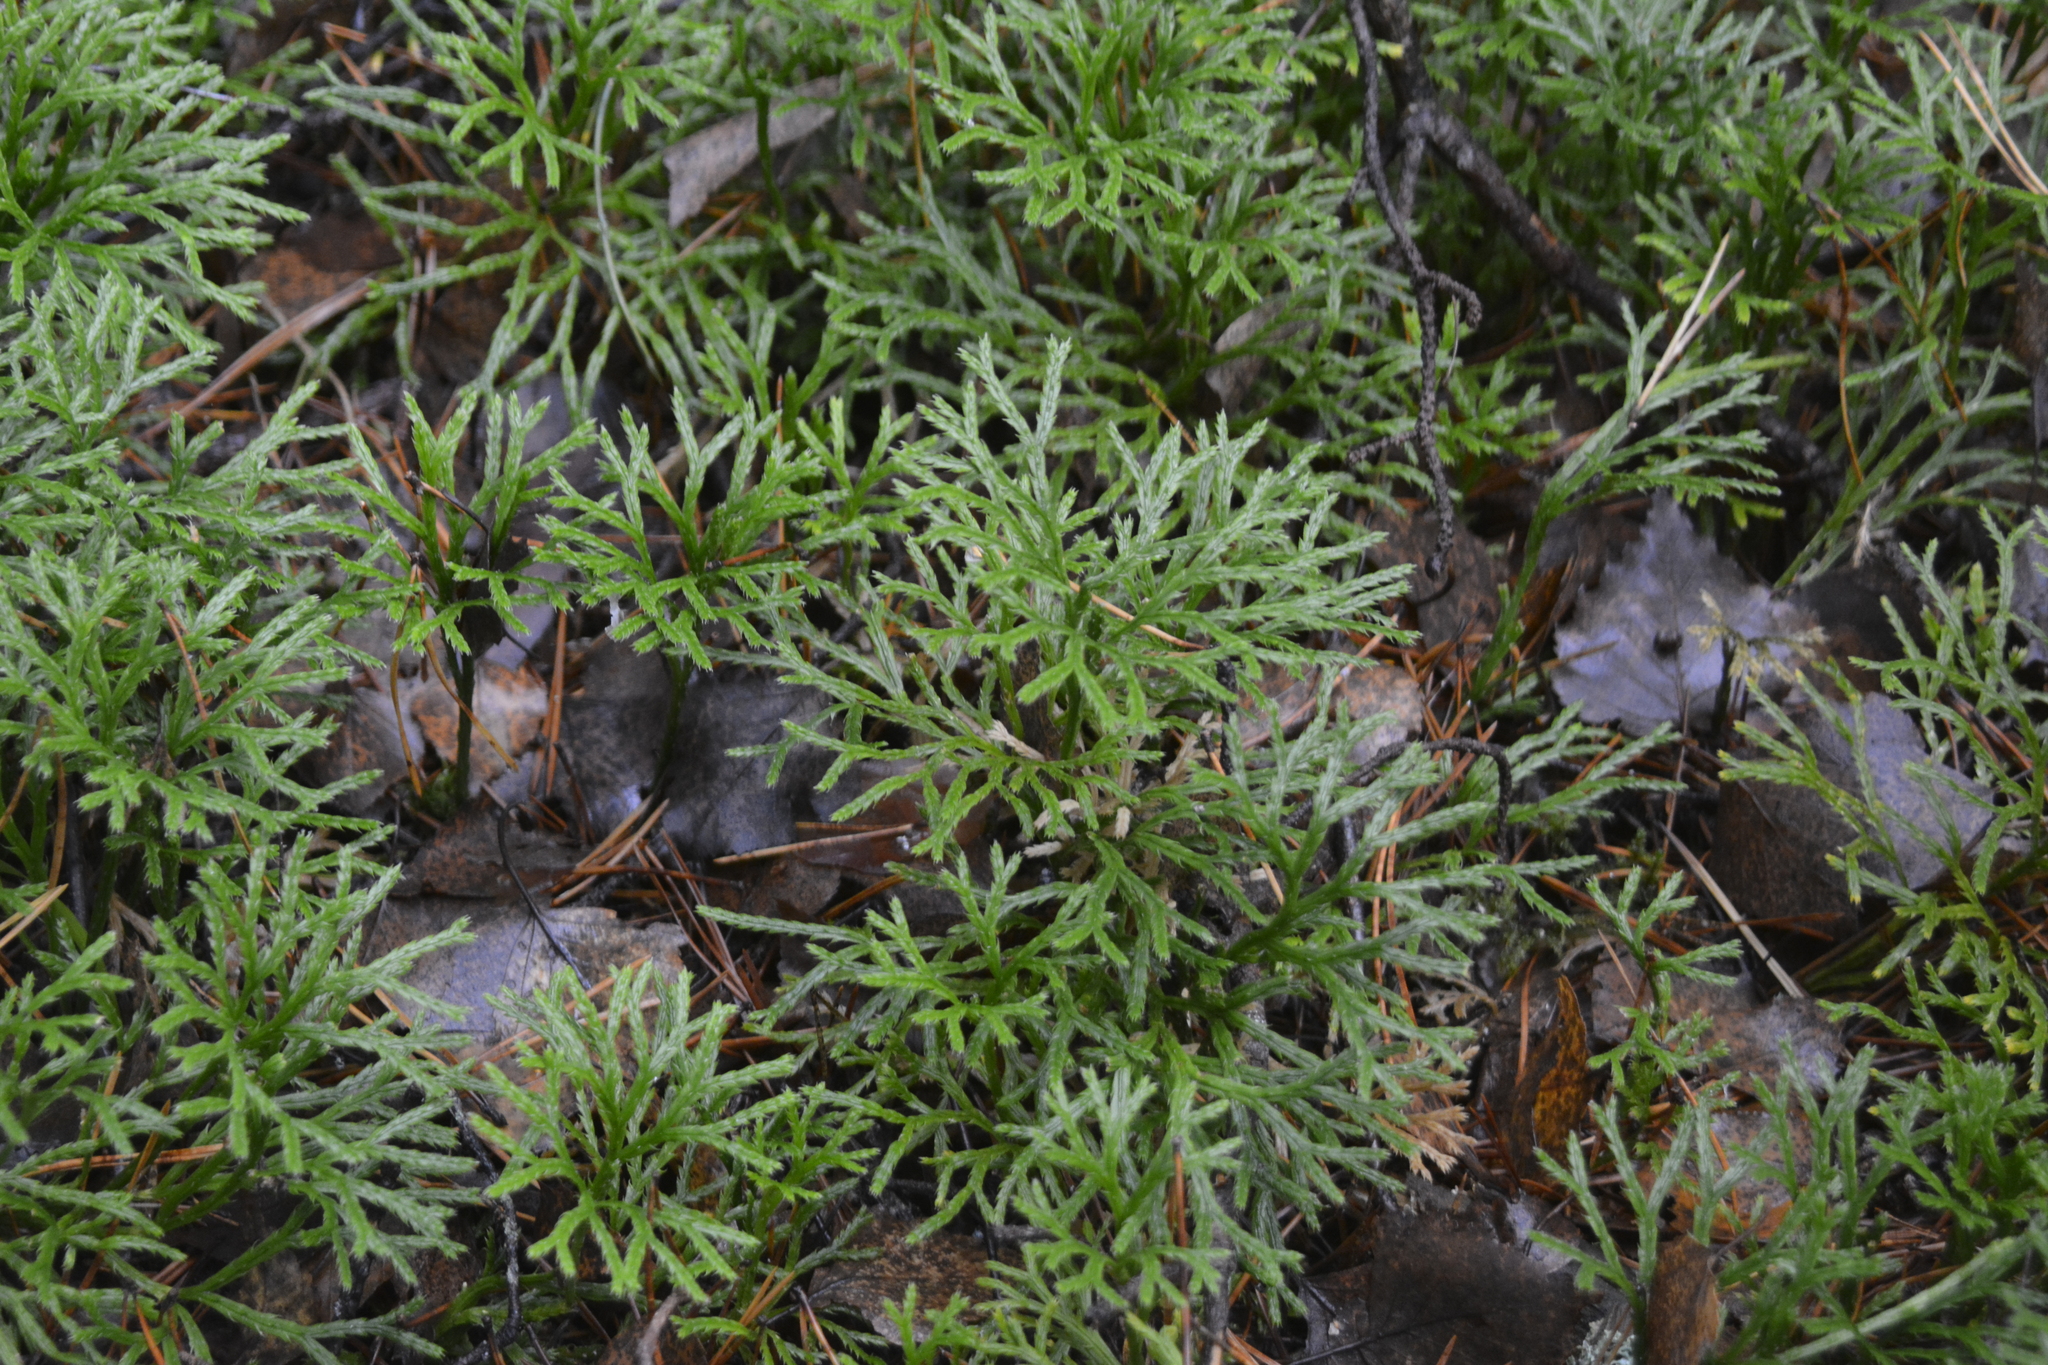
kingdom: Plantae
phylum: Tracheophyta
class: Lycopodiopsida
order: Lycopodiales
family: Lycopodiaceae
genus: Diphasiastrum
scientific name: Diphasiastrum complanatum
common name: Northern running-pine
